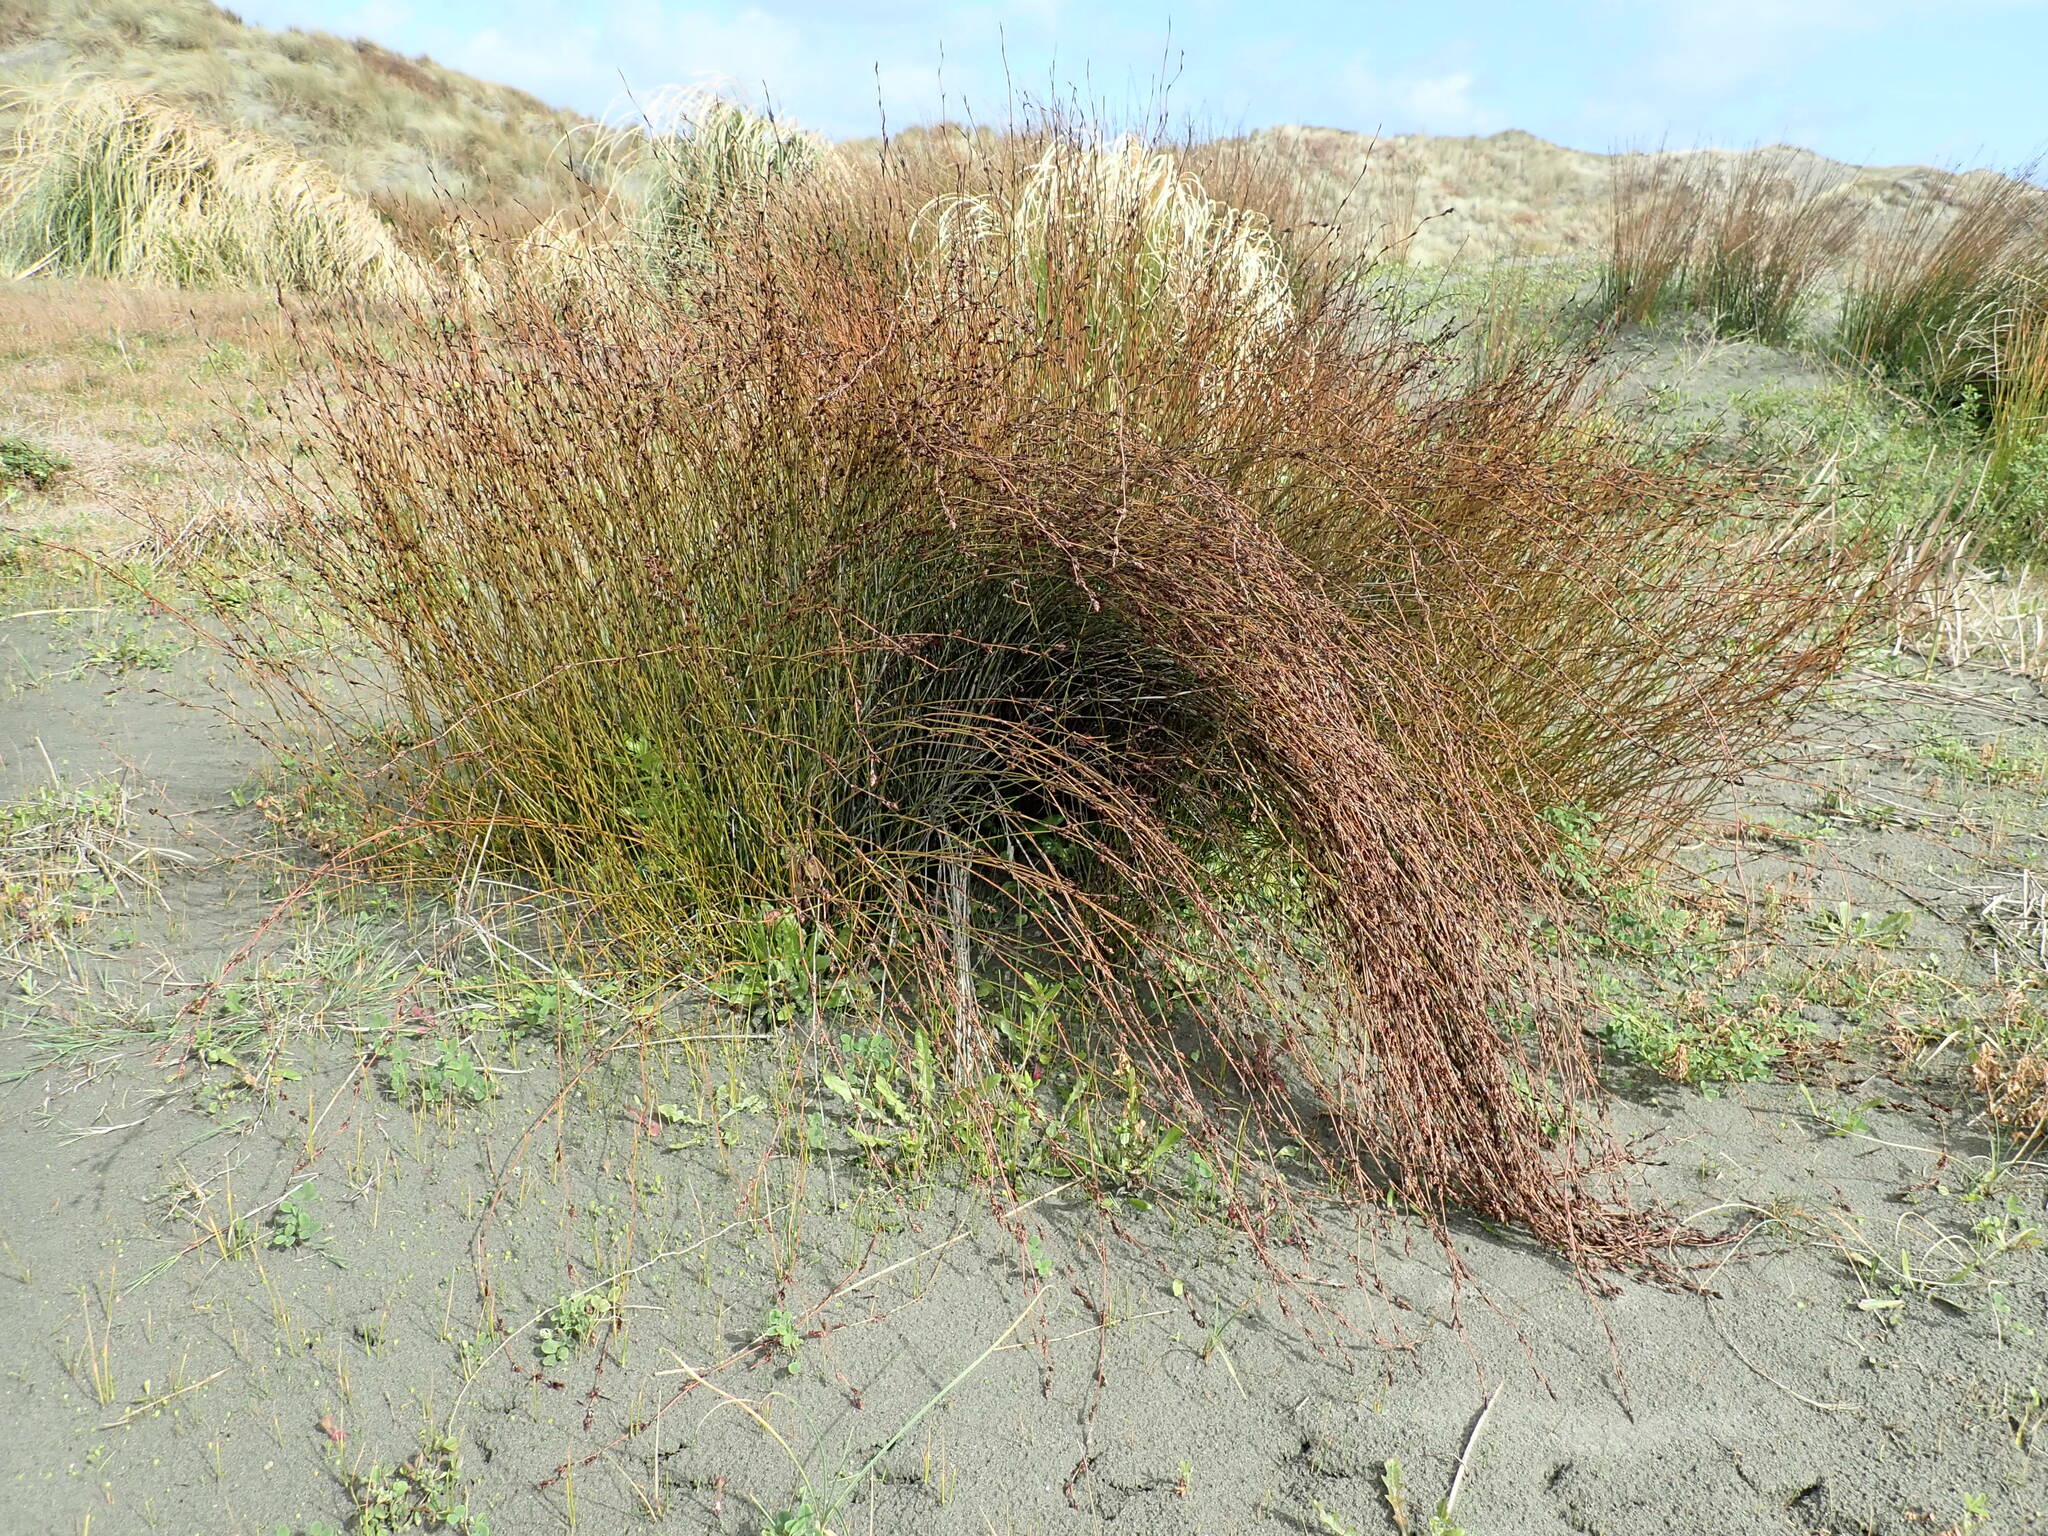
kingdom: Plantae
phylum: Tracheophyta
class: Liliopsida
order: Poales
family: Restionaceae
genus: Apodasmia
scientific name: Apodasmia similis
